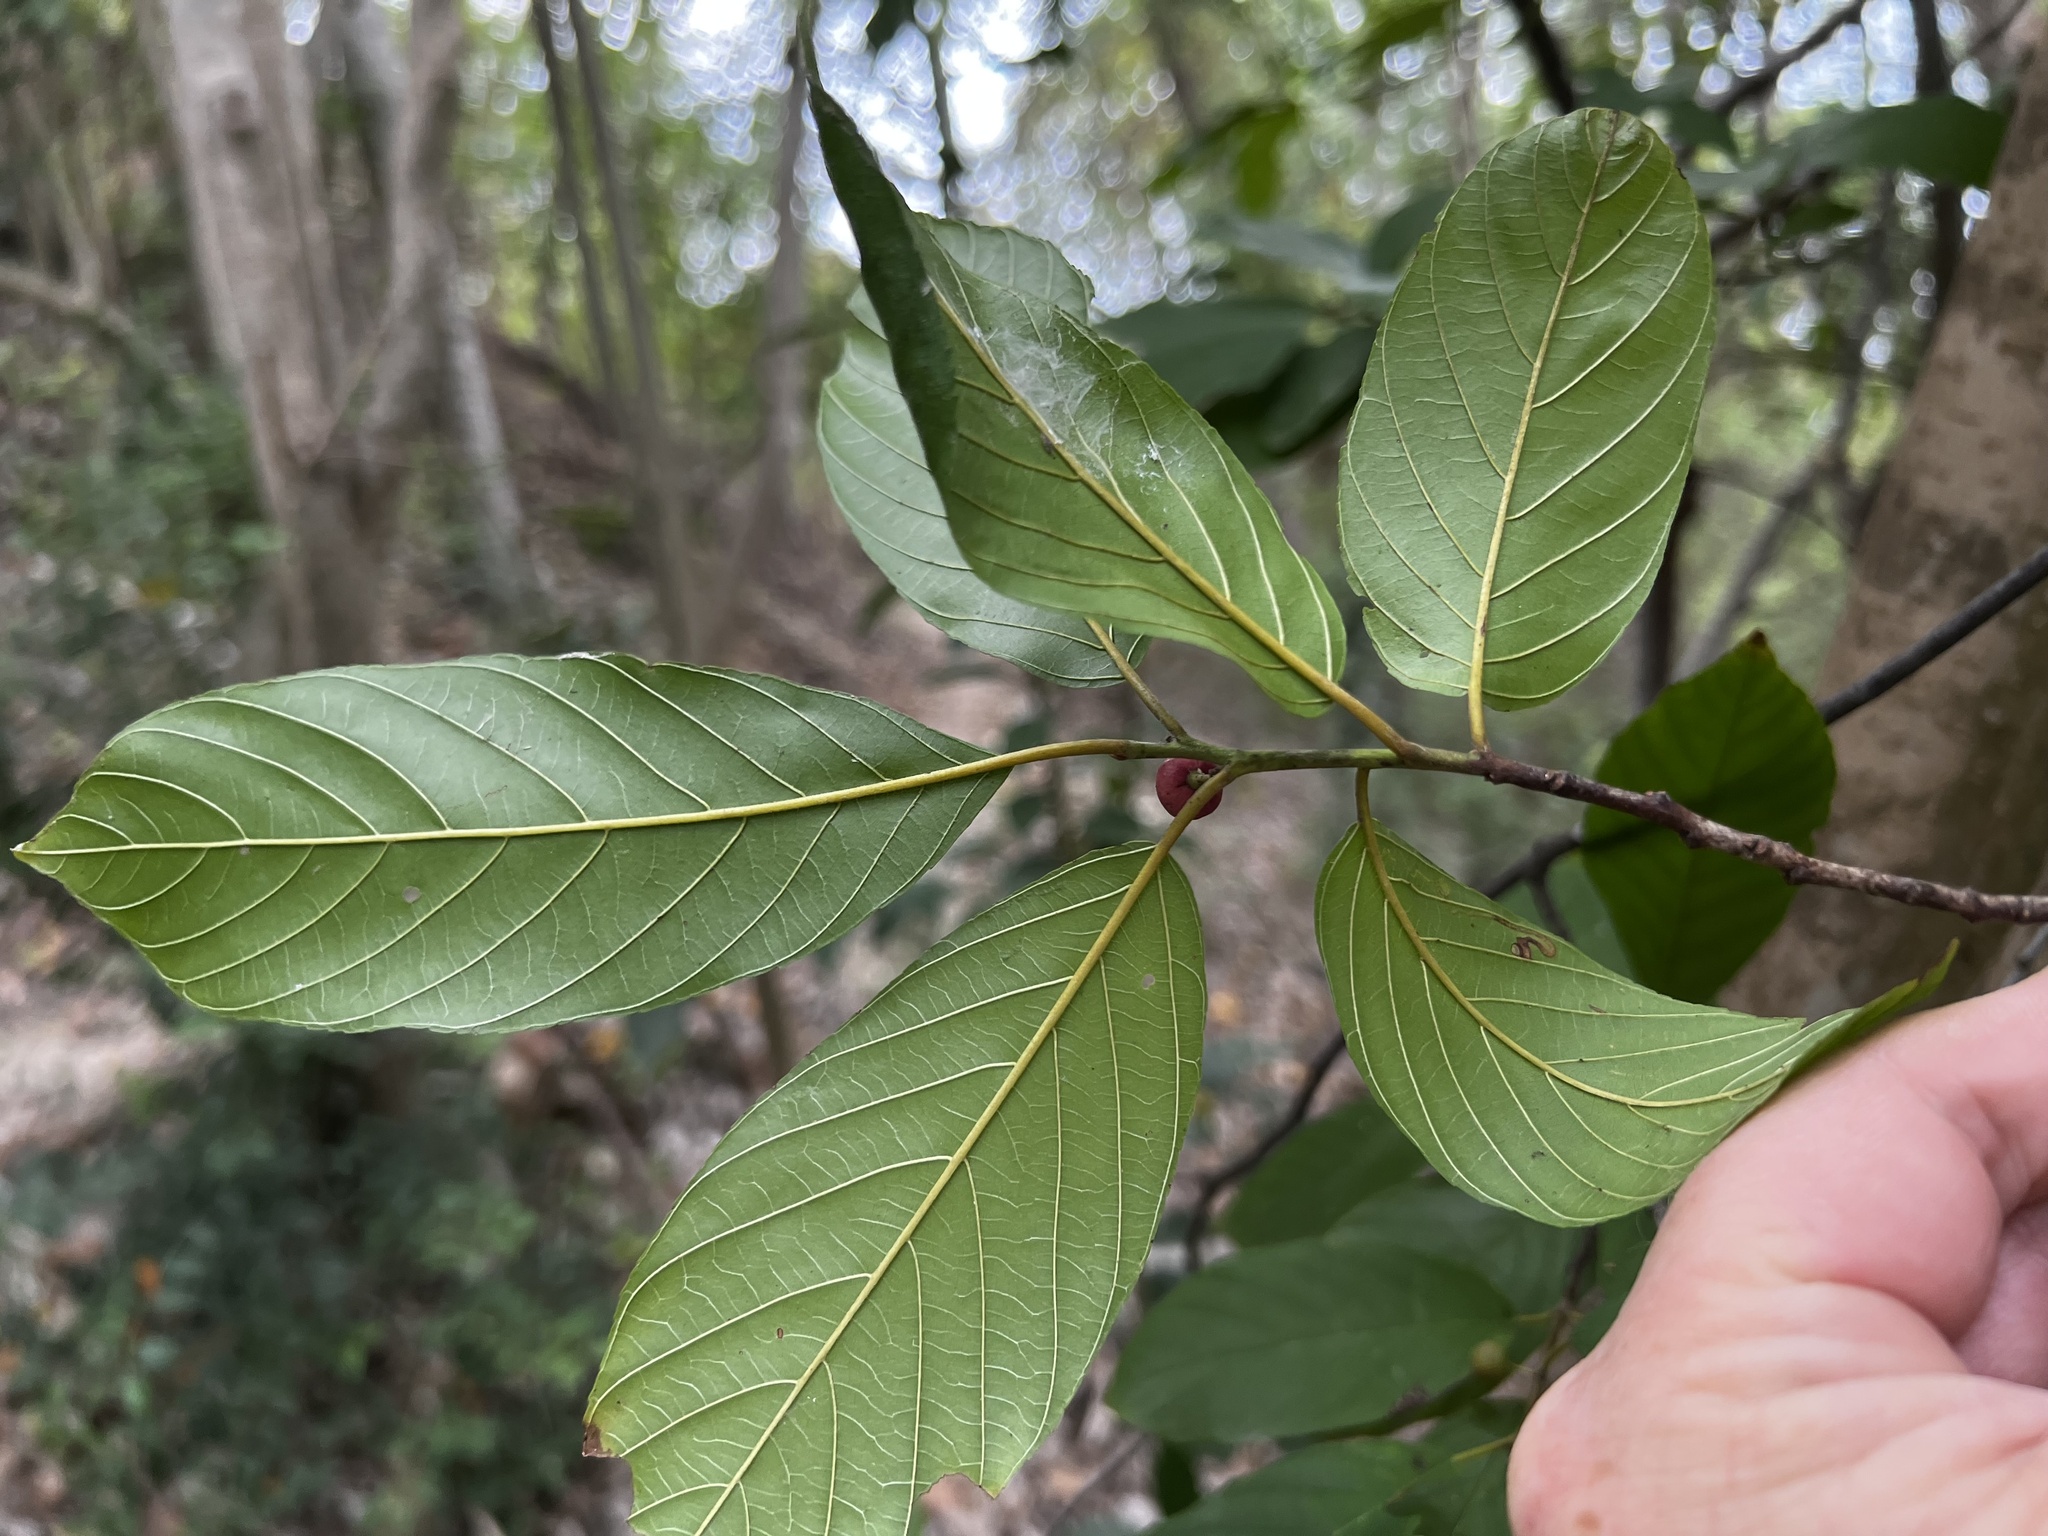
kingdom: Plantae
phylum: Tracheophyta
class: Magnoliopsida
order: Rosales
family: Rhamnaceae
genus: Frangula
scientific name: Frangula caroliniana
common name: Carolina buckthorn
